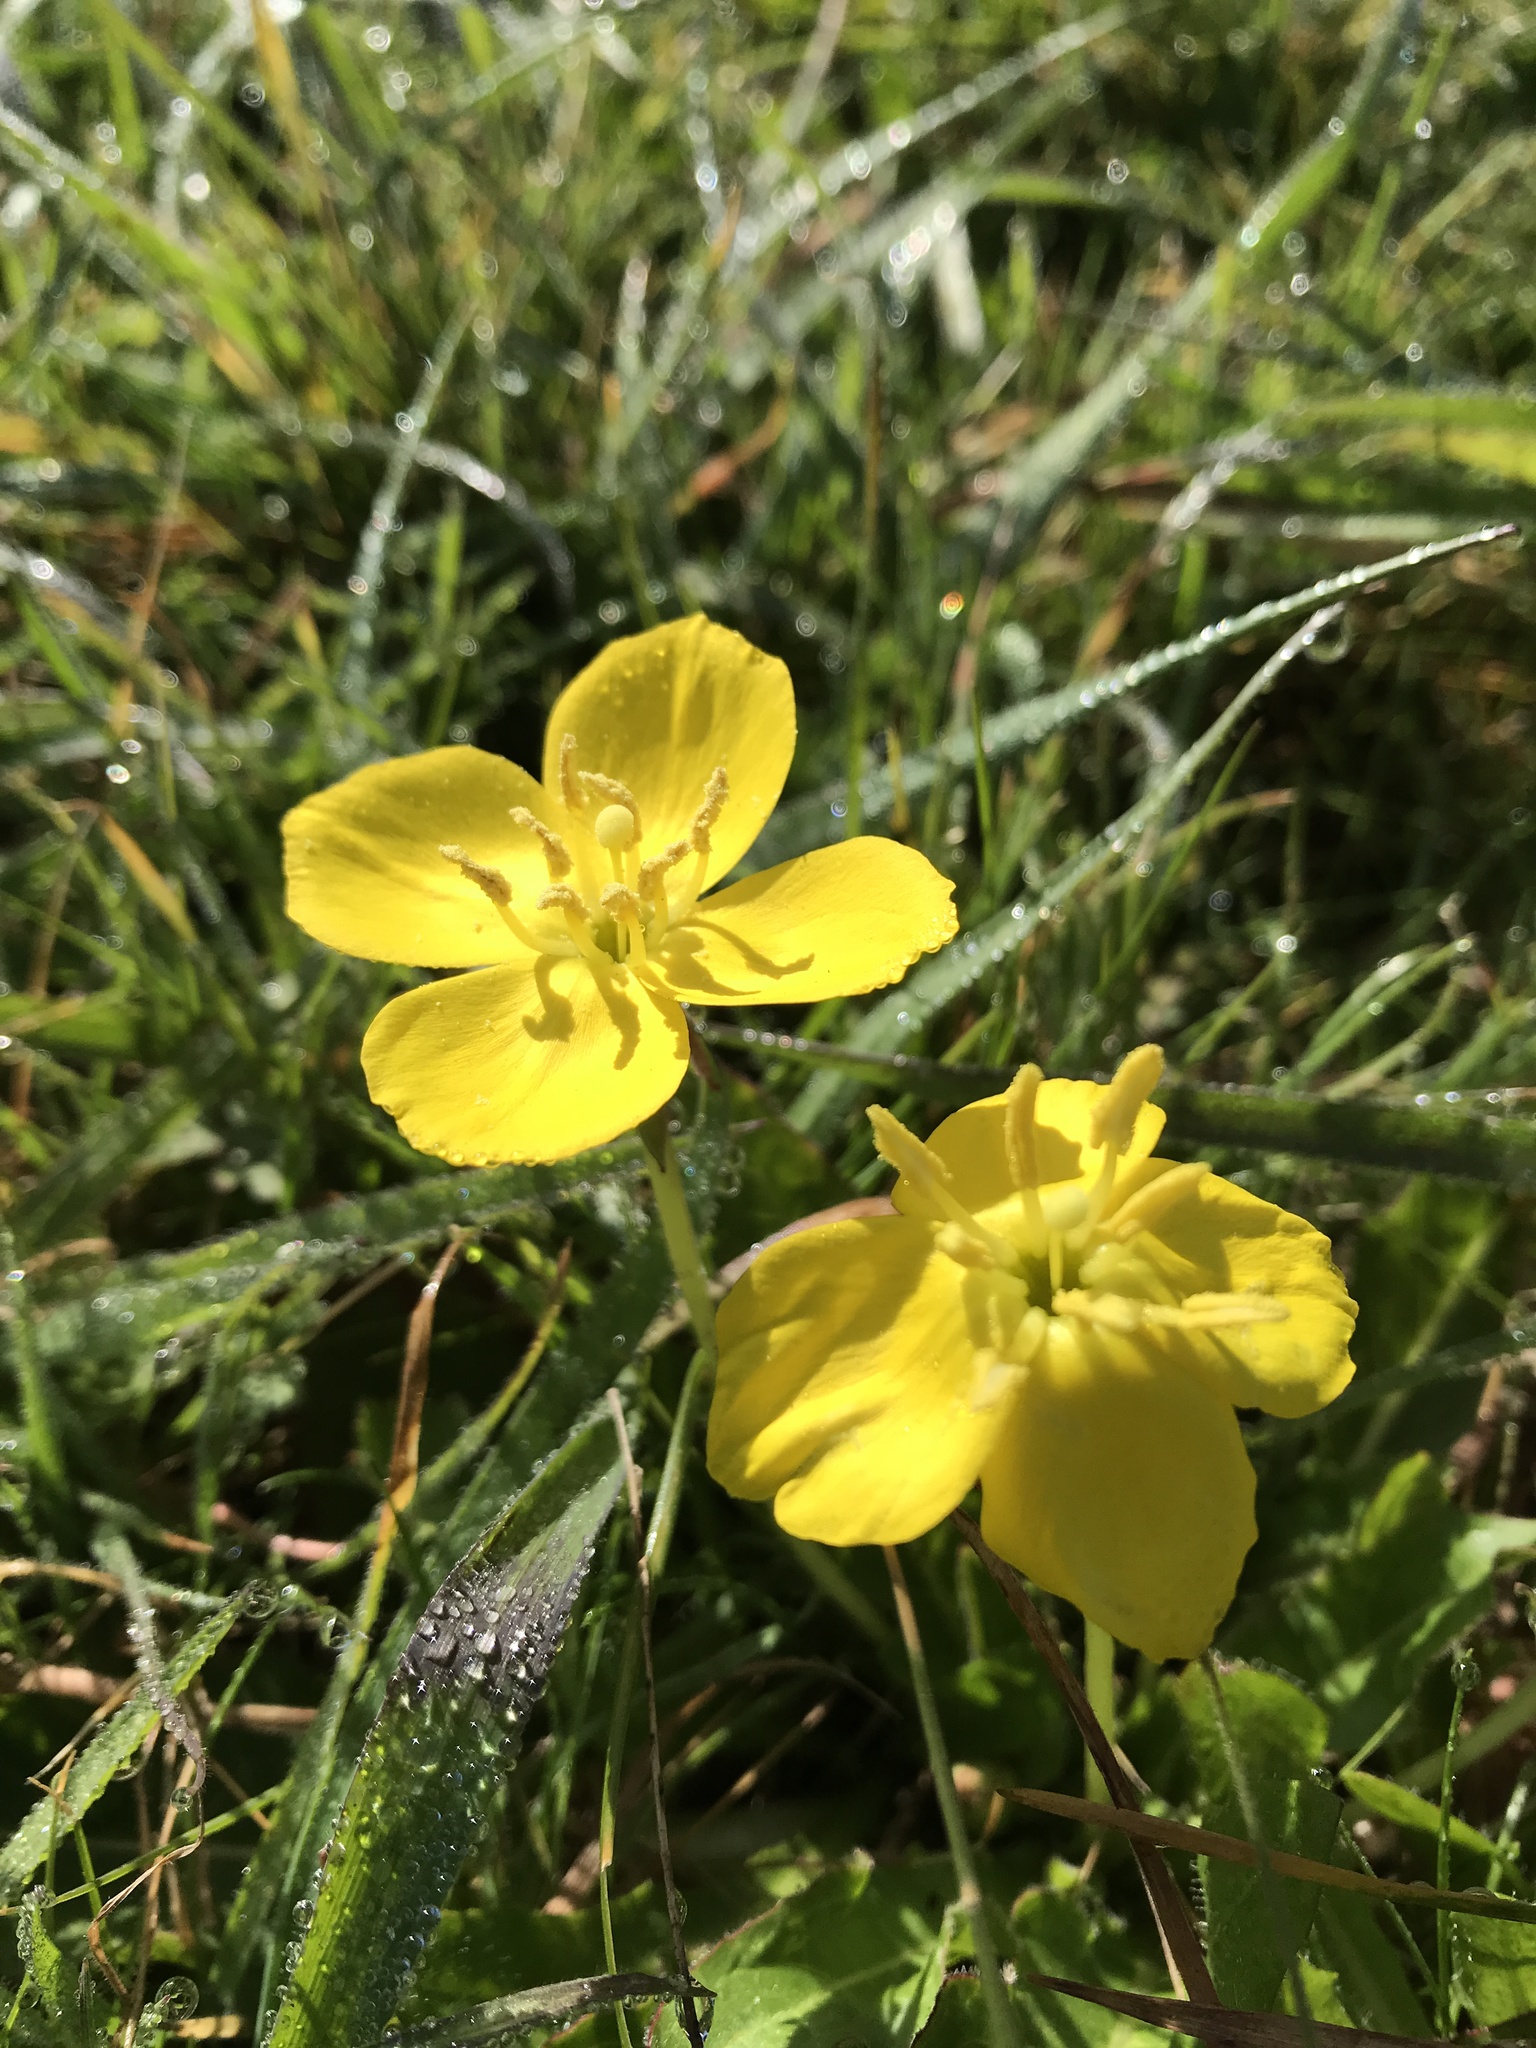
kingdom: Plantae
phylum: Tracheophyta
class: Magnoliopsida
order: Myrtales
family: Onagraceae
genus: Taraxia
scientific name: Taraxia ovata
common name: Goldeneggs
